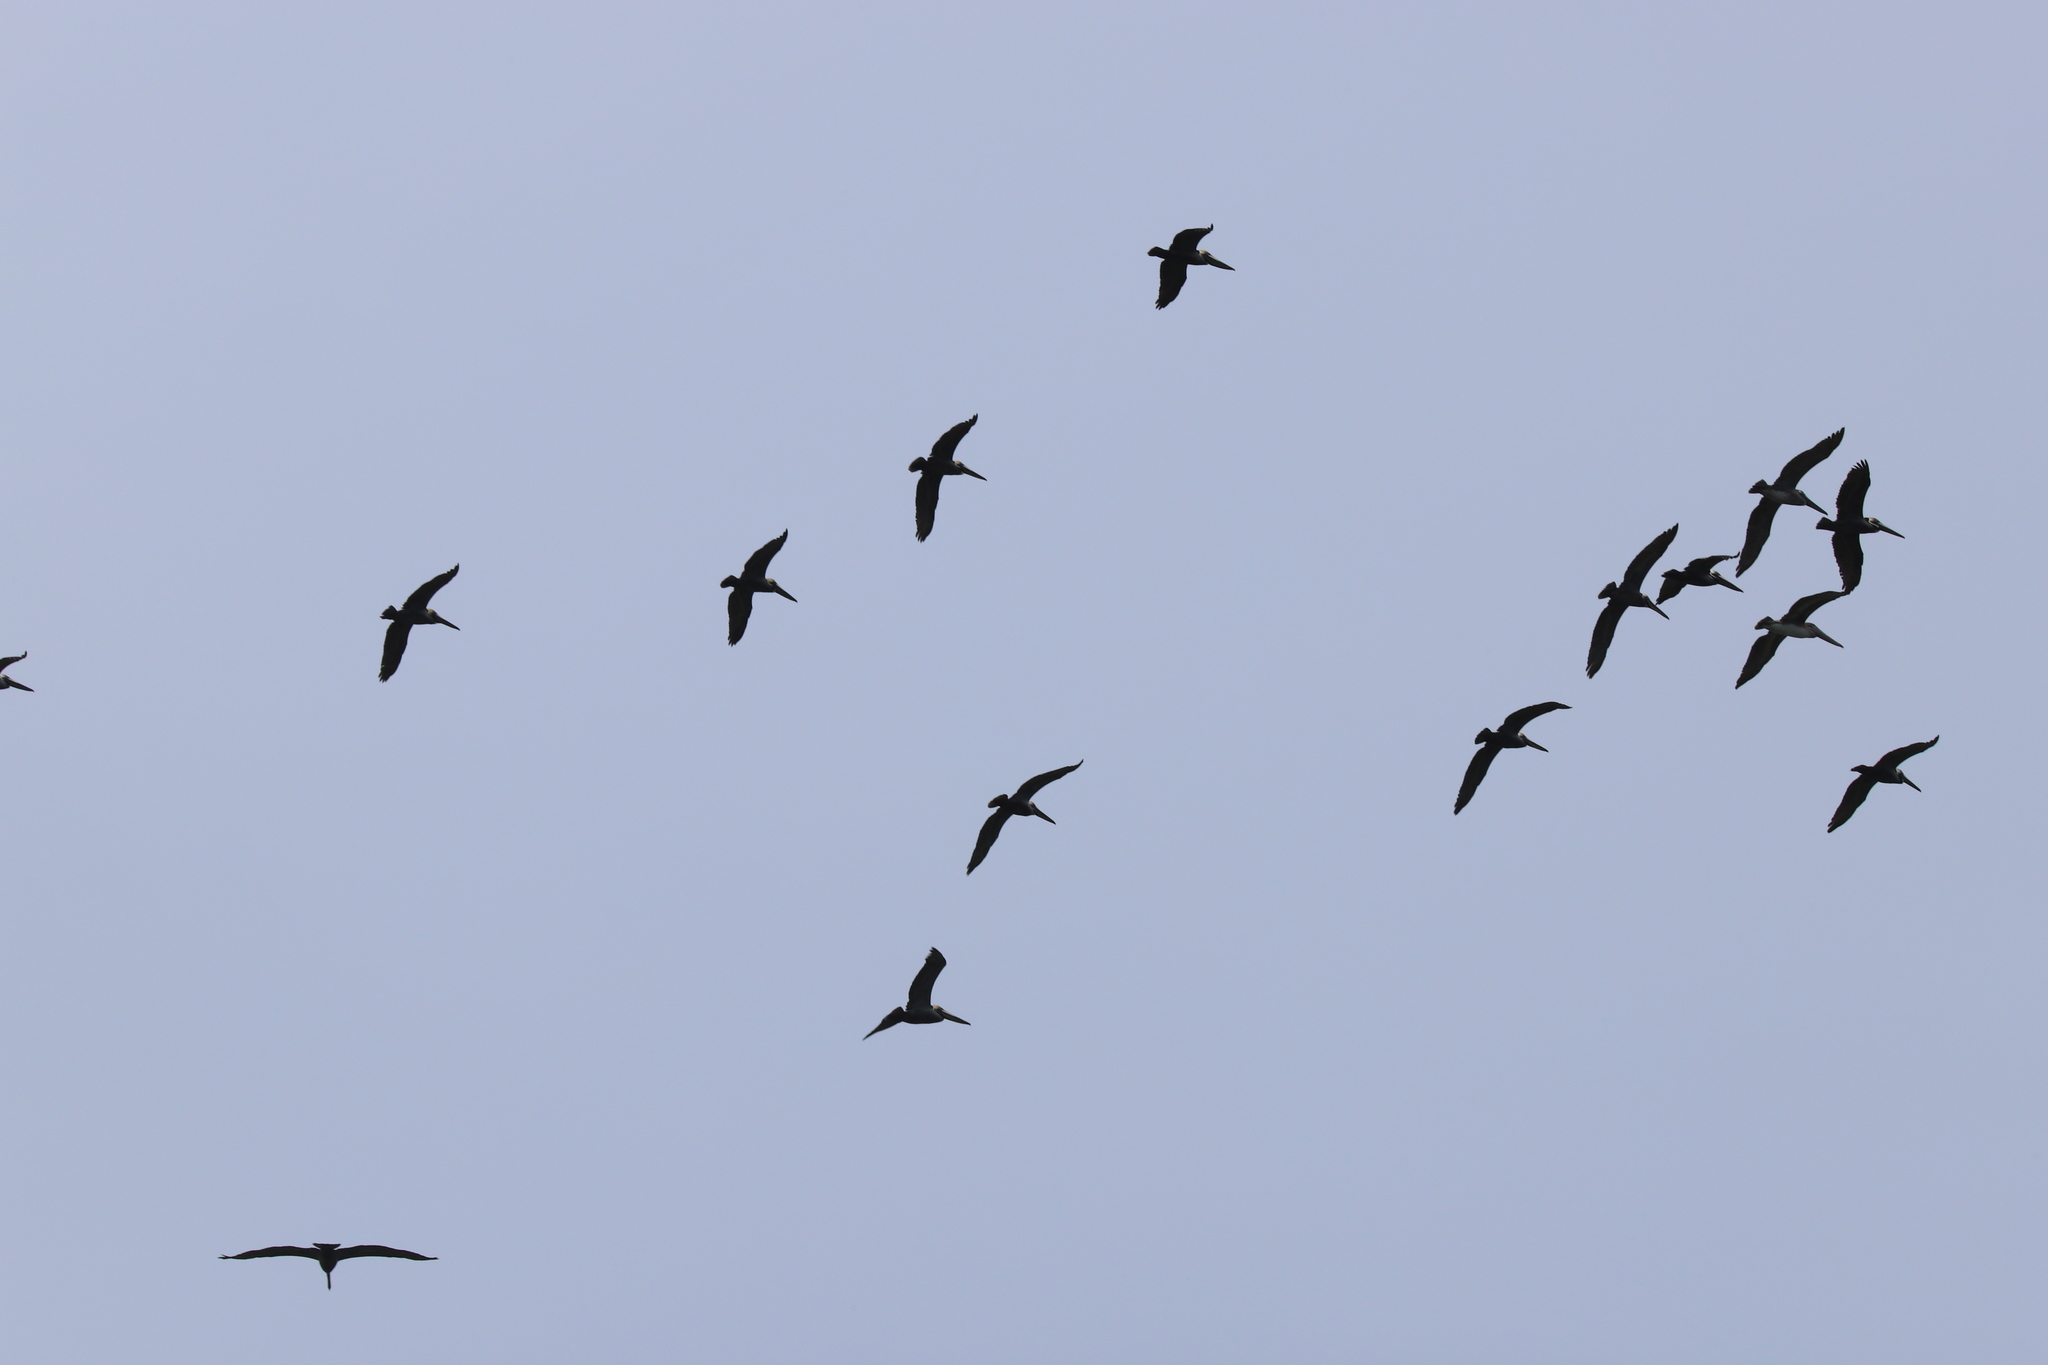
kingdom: Animalia
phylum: Chordata
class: Aves
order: Pelecaniformes
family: Pelecanidae
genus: Pelecanus
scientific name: Pelecanus occidentalis
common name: Brown pelican
